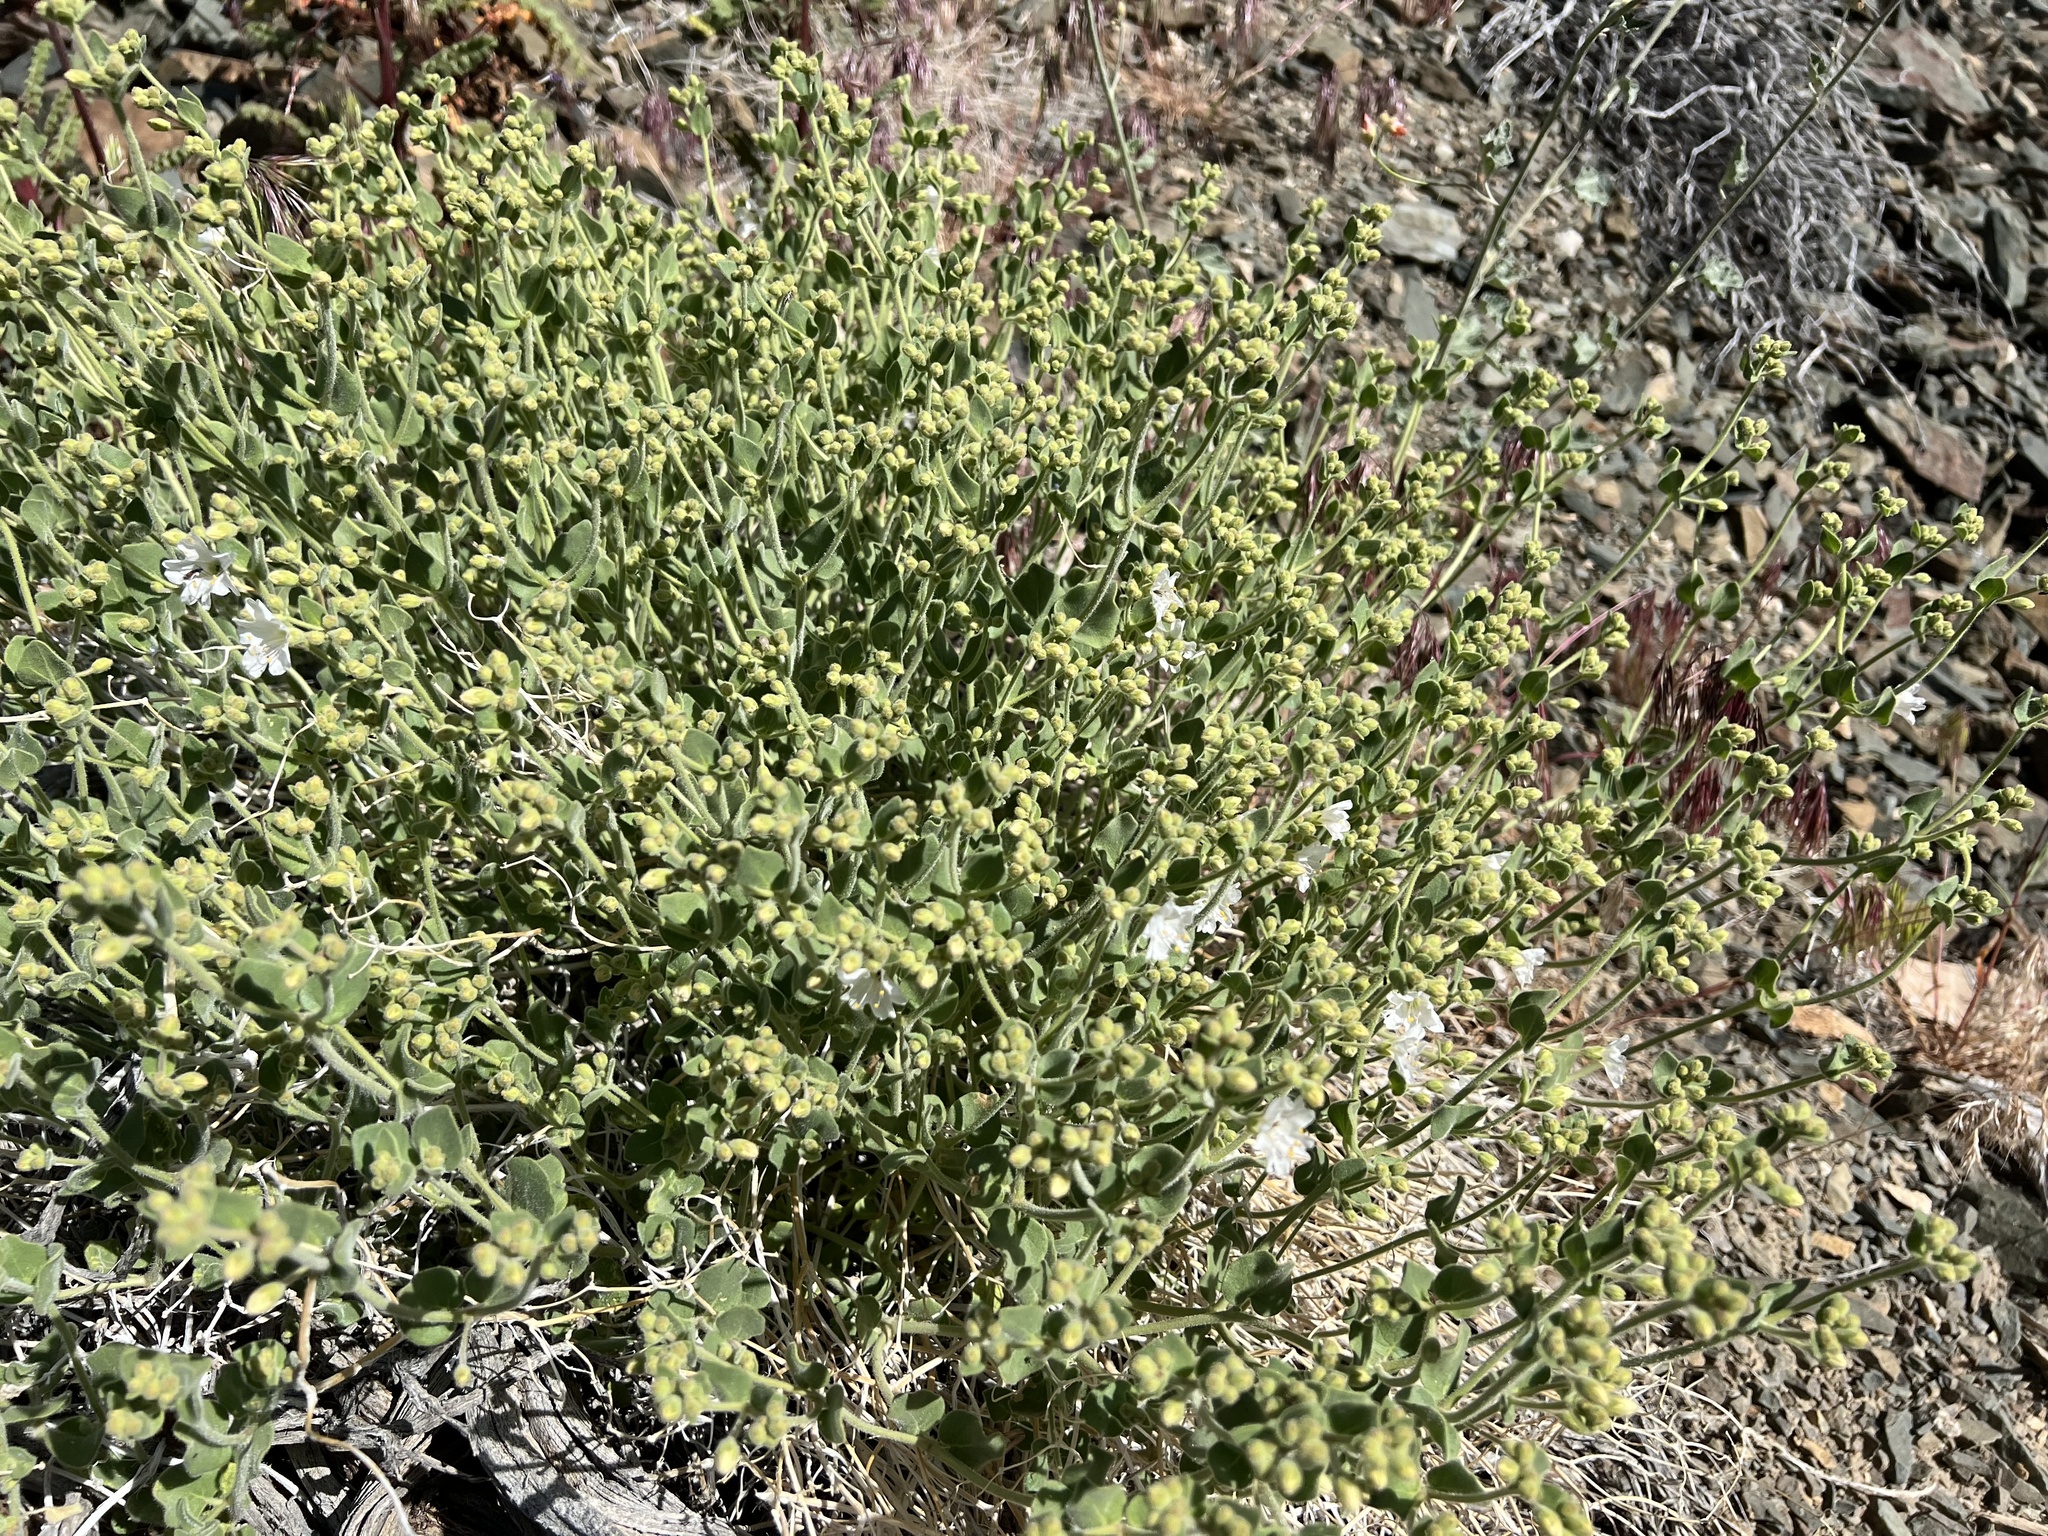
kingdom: Plantae
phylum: Tracheophyta
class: Magnoliopsida
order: Caryophyllales
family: Nyctaginaceae
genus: Mirabilis
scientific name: Mirabilis laevis
